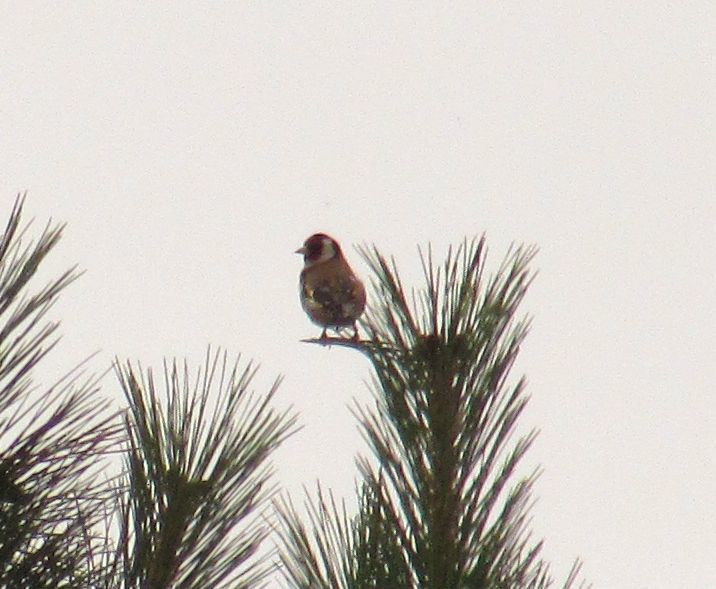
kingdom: Animalia
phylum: Chordata
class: Aves
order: Passeriformes
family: Fringillidae
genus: Carduelis
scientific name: Carduelis carduelis
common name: European goldfinch
